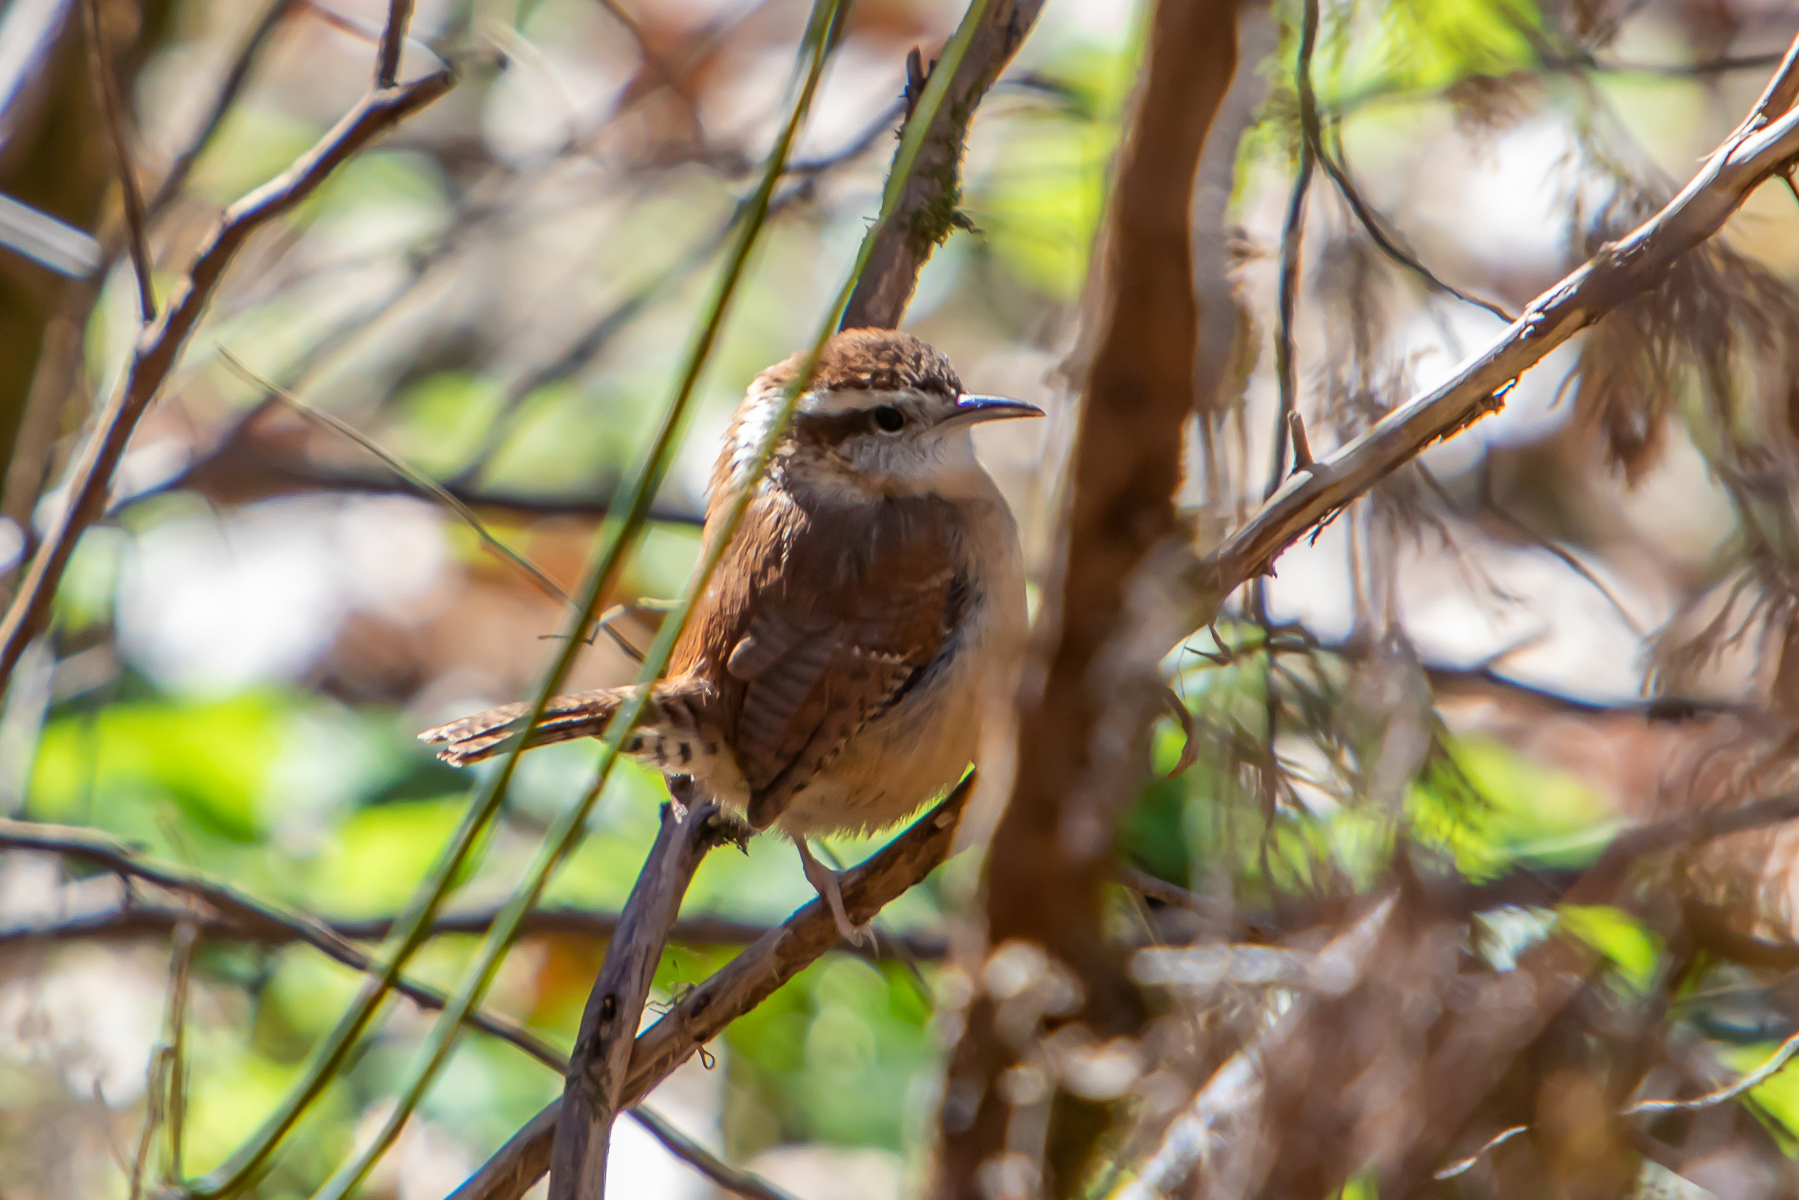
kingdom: Animalia
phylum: Chordata
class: Aves
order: Passeriformes
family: Troglodytidae
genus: Thryothorus
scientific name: Thryothorus ludovicianus
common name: Carolina wren
